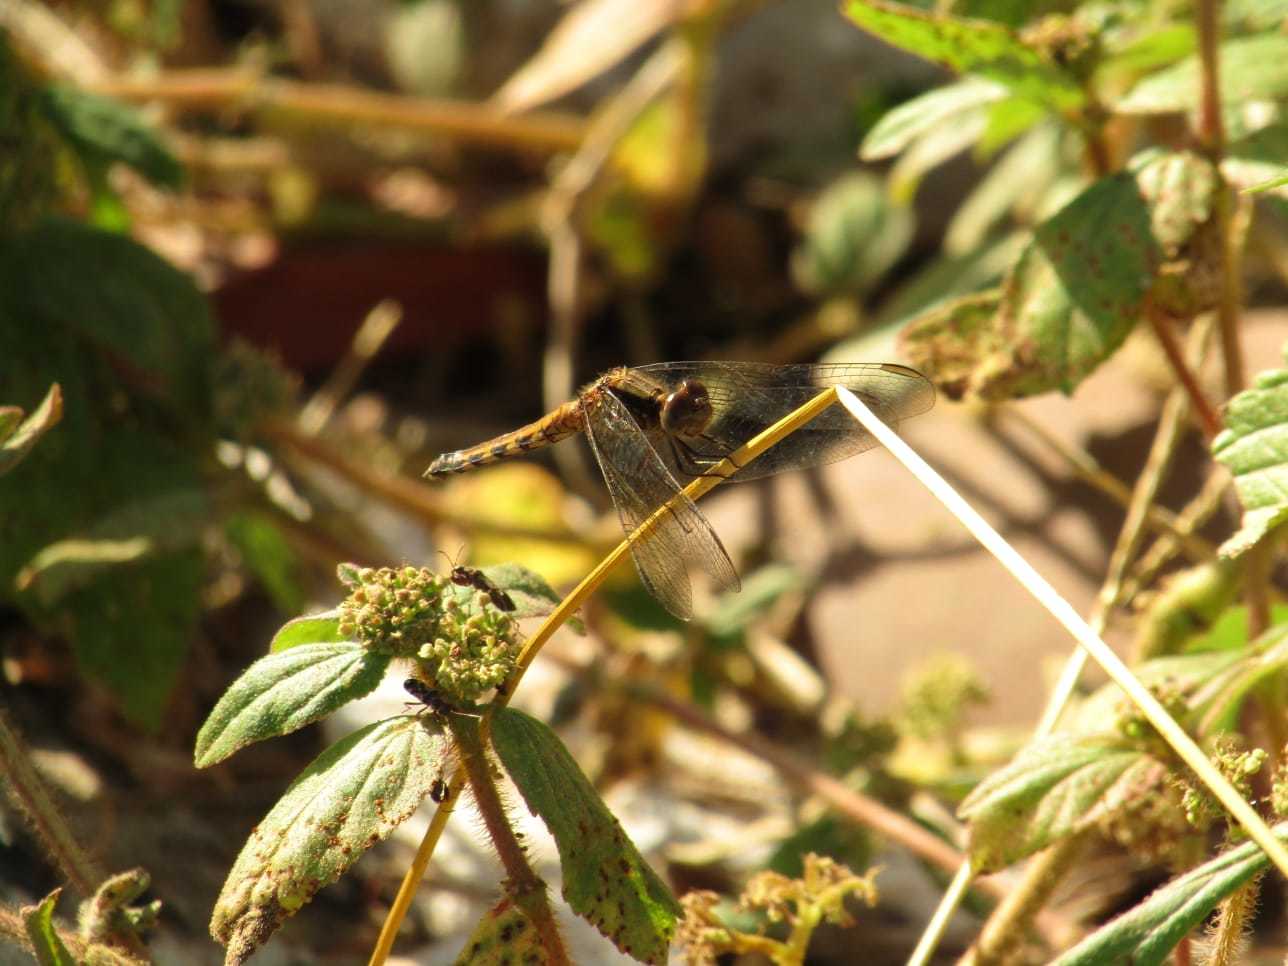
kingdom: Animalia
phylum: Arthropoda
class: Insecta
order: Odonata
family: Libellulidae
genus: Erythrodiplax
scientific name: Erythrodiplax umbrata
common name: Band-winged dragonlet
